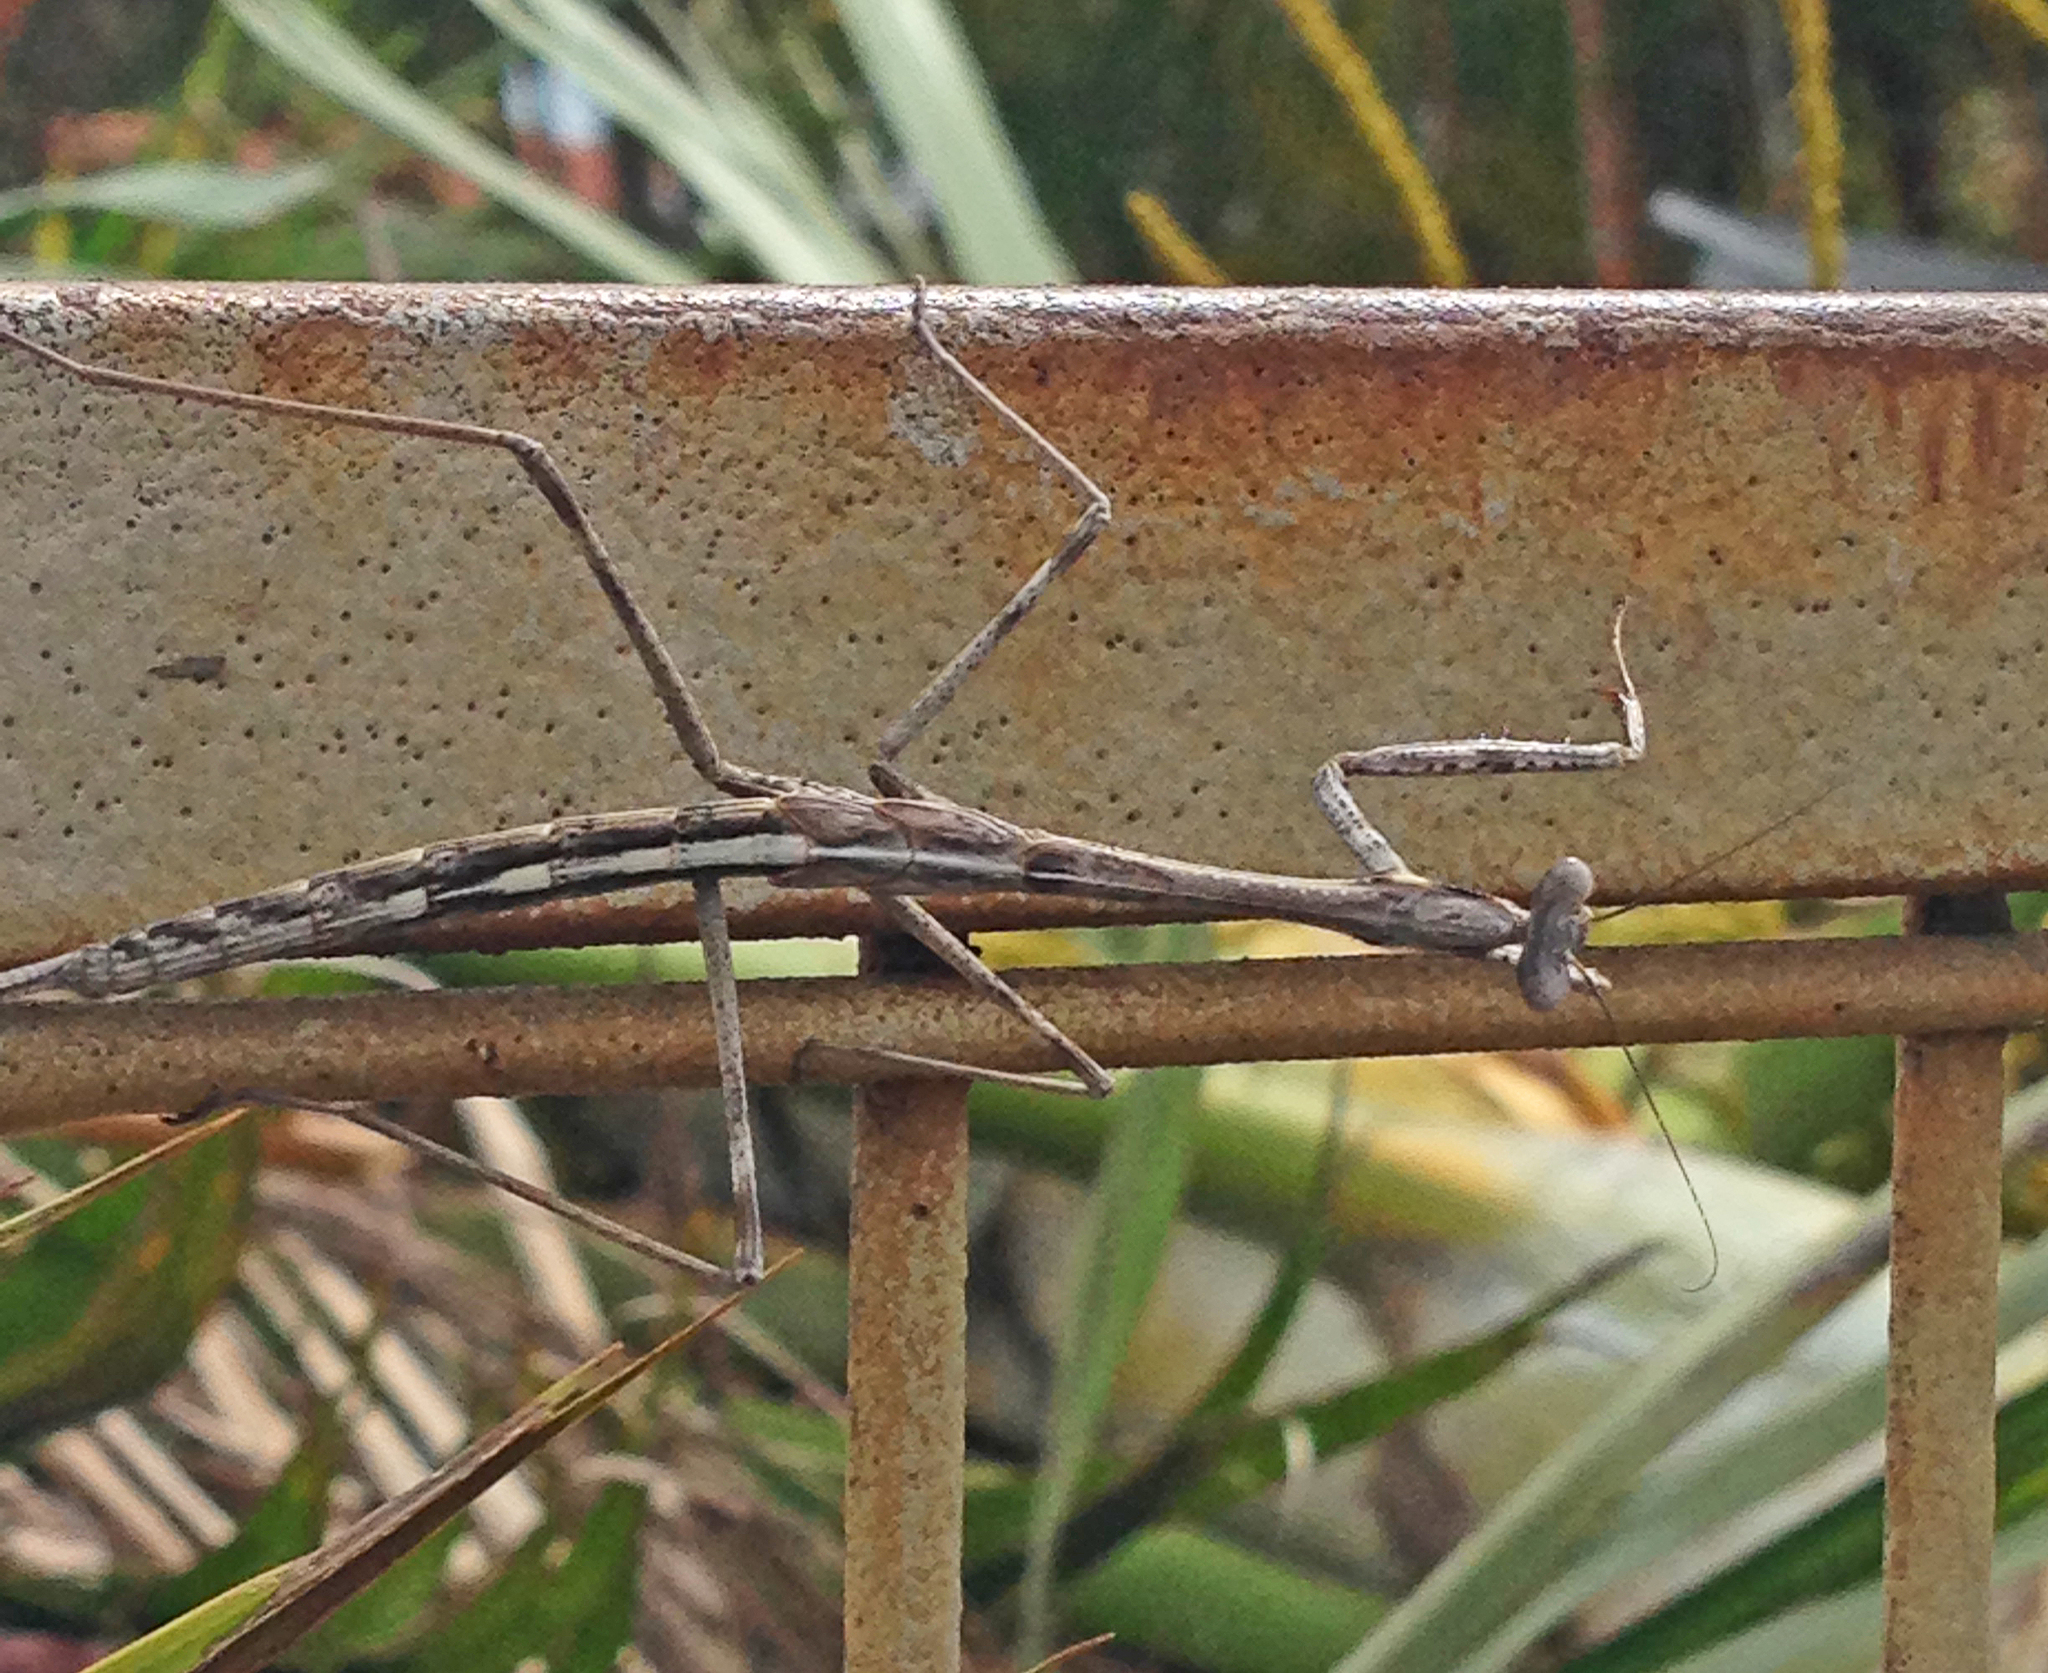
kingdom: Animalia
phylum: Arthropoda
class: Insecta
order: Mantodea
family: Mantidae
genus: Archimantis
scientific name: Archimantis latistyla
